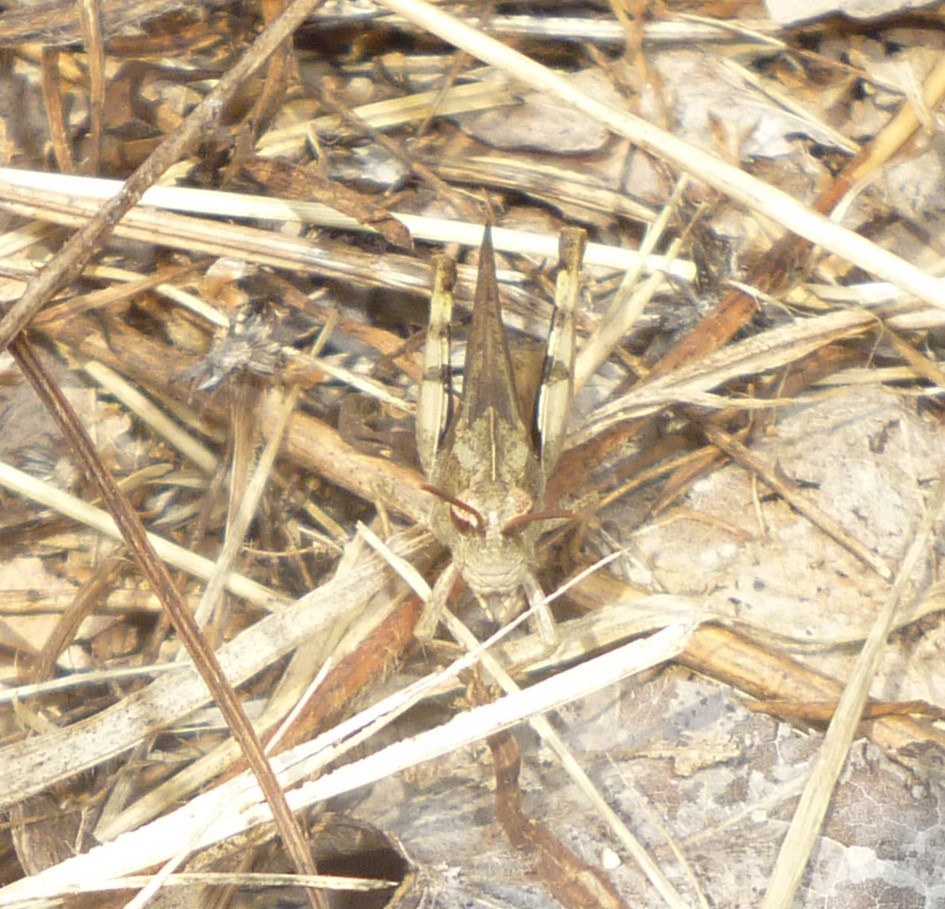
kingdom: Animalia
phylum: Arthropoda
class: Insecta
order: Orthoptera
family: Acrididae
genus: Chortophaga
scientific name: Chortophaga viridifasciata
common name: Green-striped grasshopper
